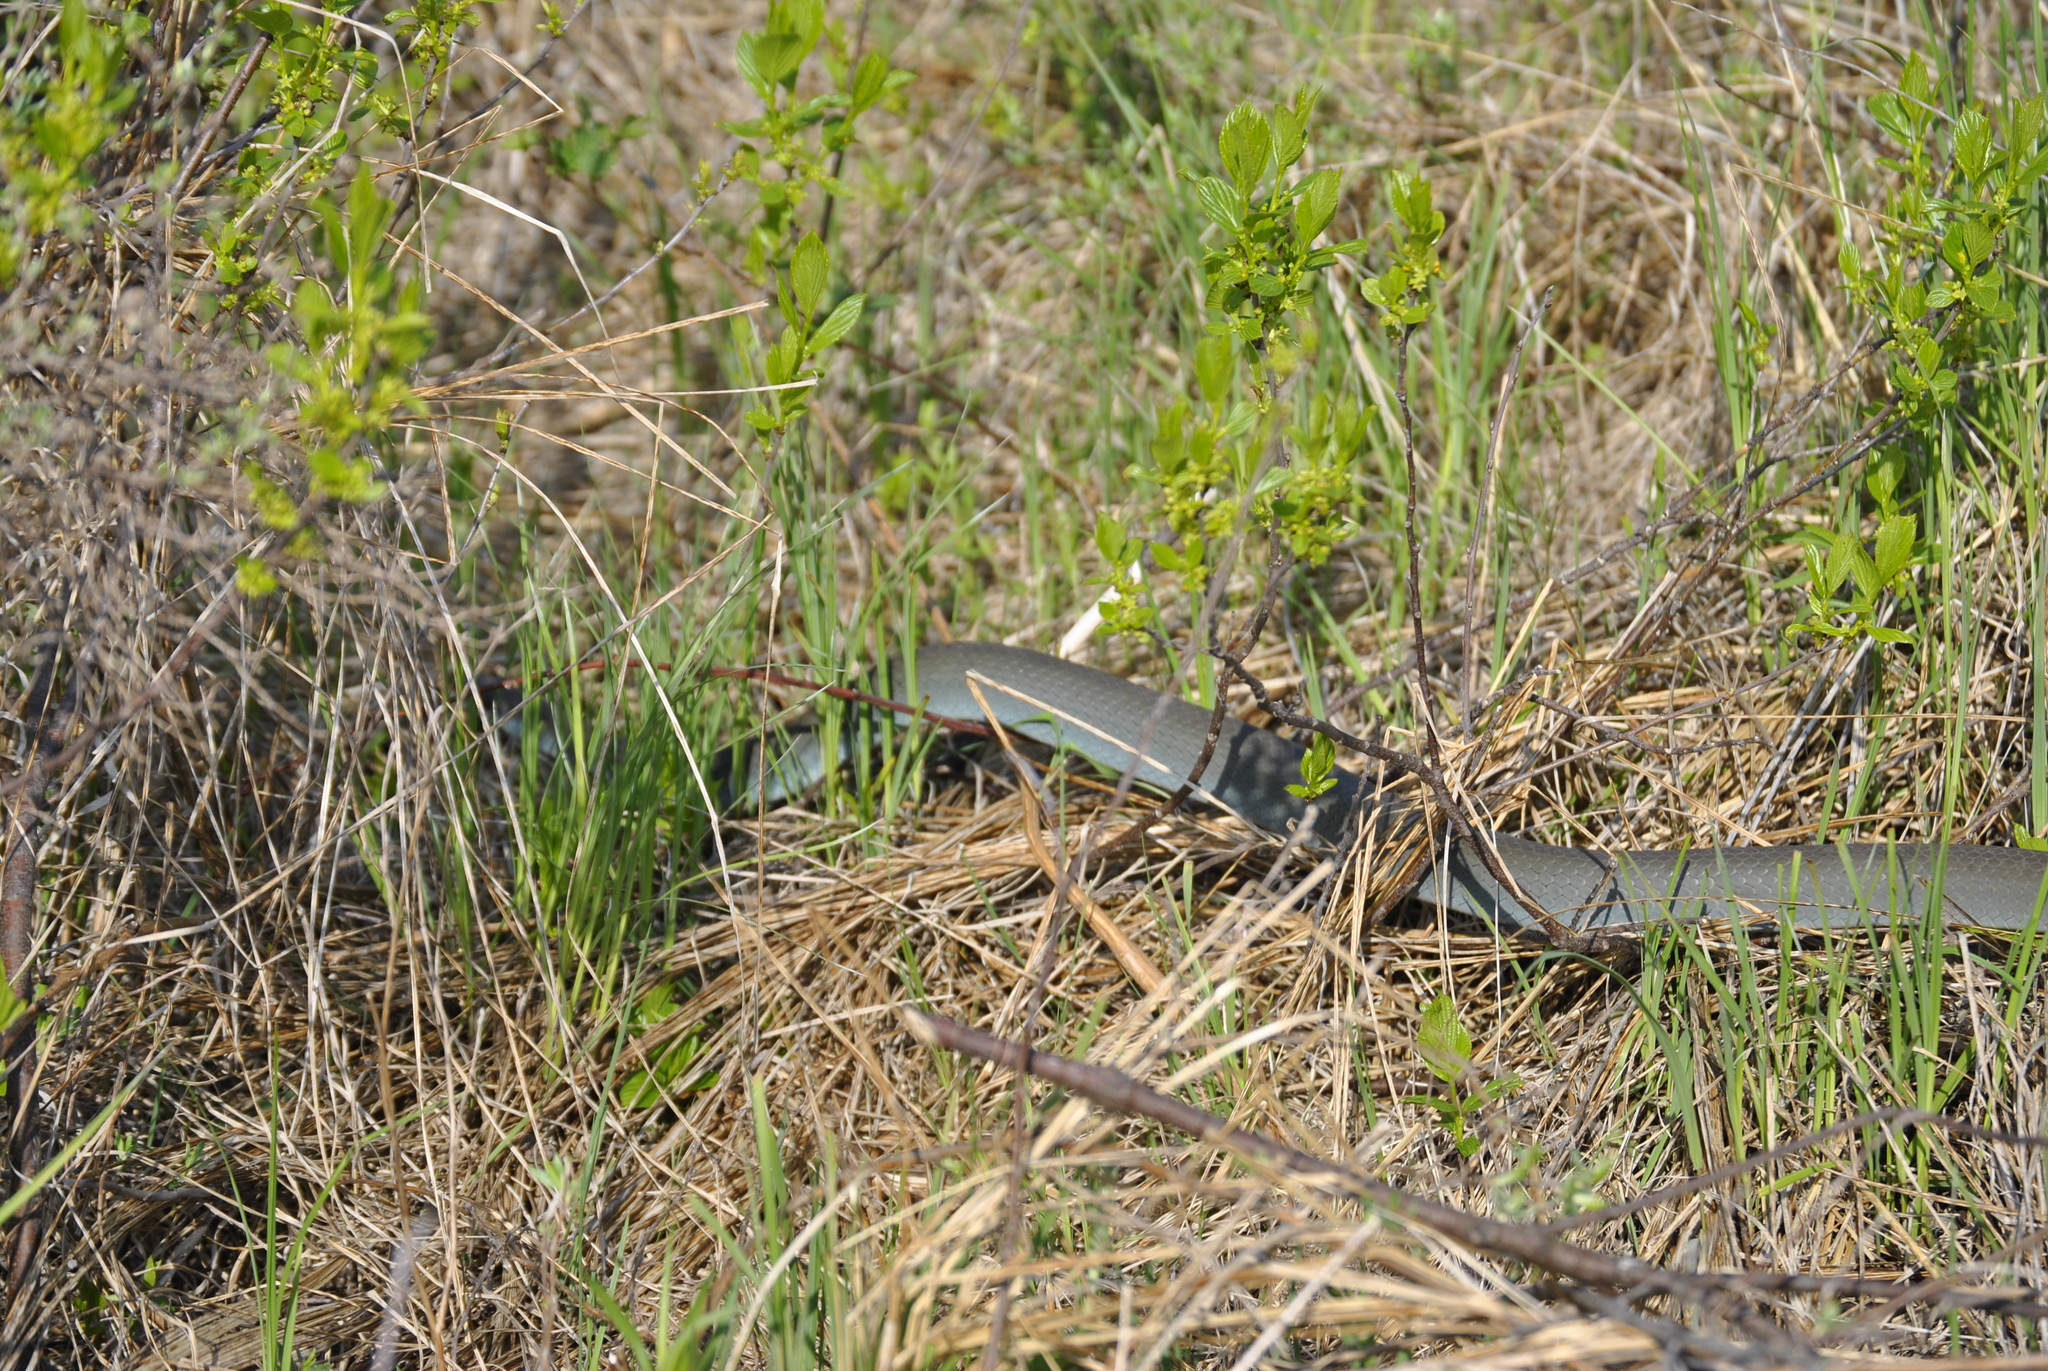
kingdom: Animalia
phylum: Chordata
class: Squamata
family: Colubridae
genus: Coluber
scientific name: Coluber constrictor
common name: Eastern racer
